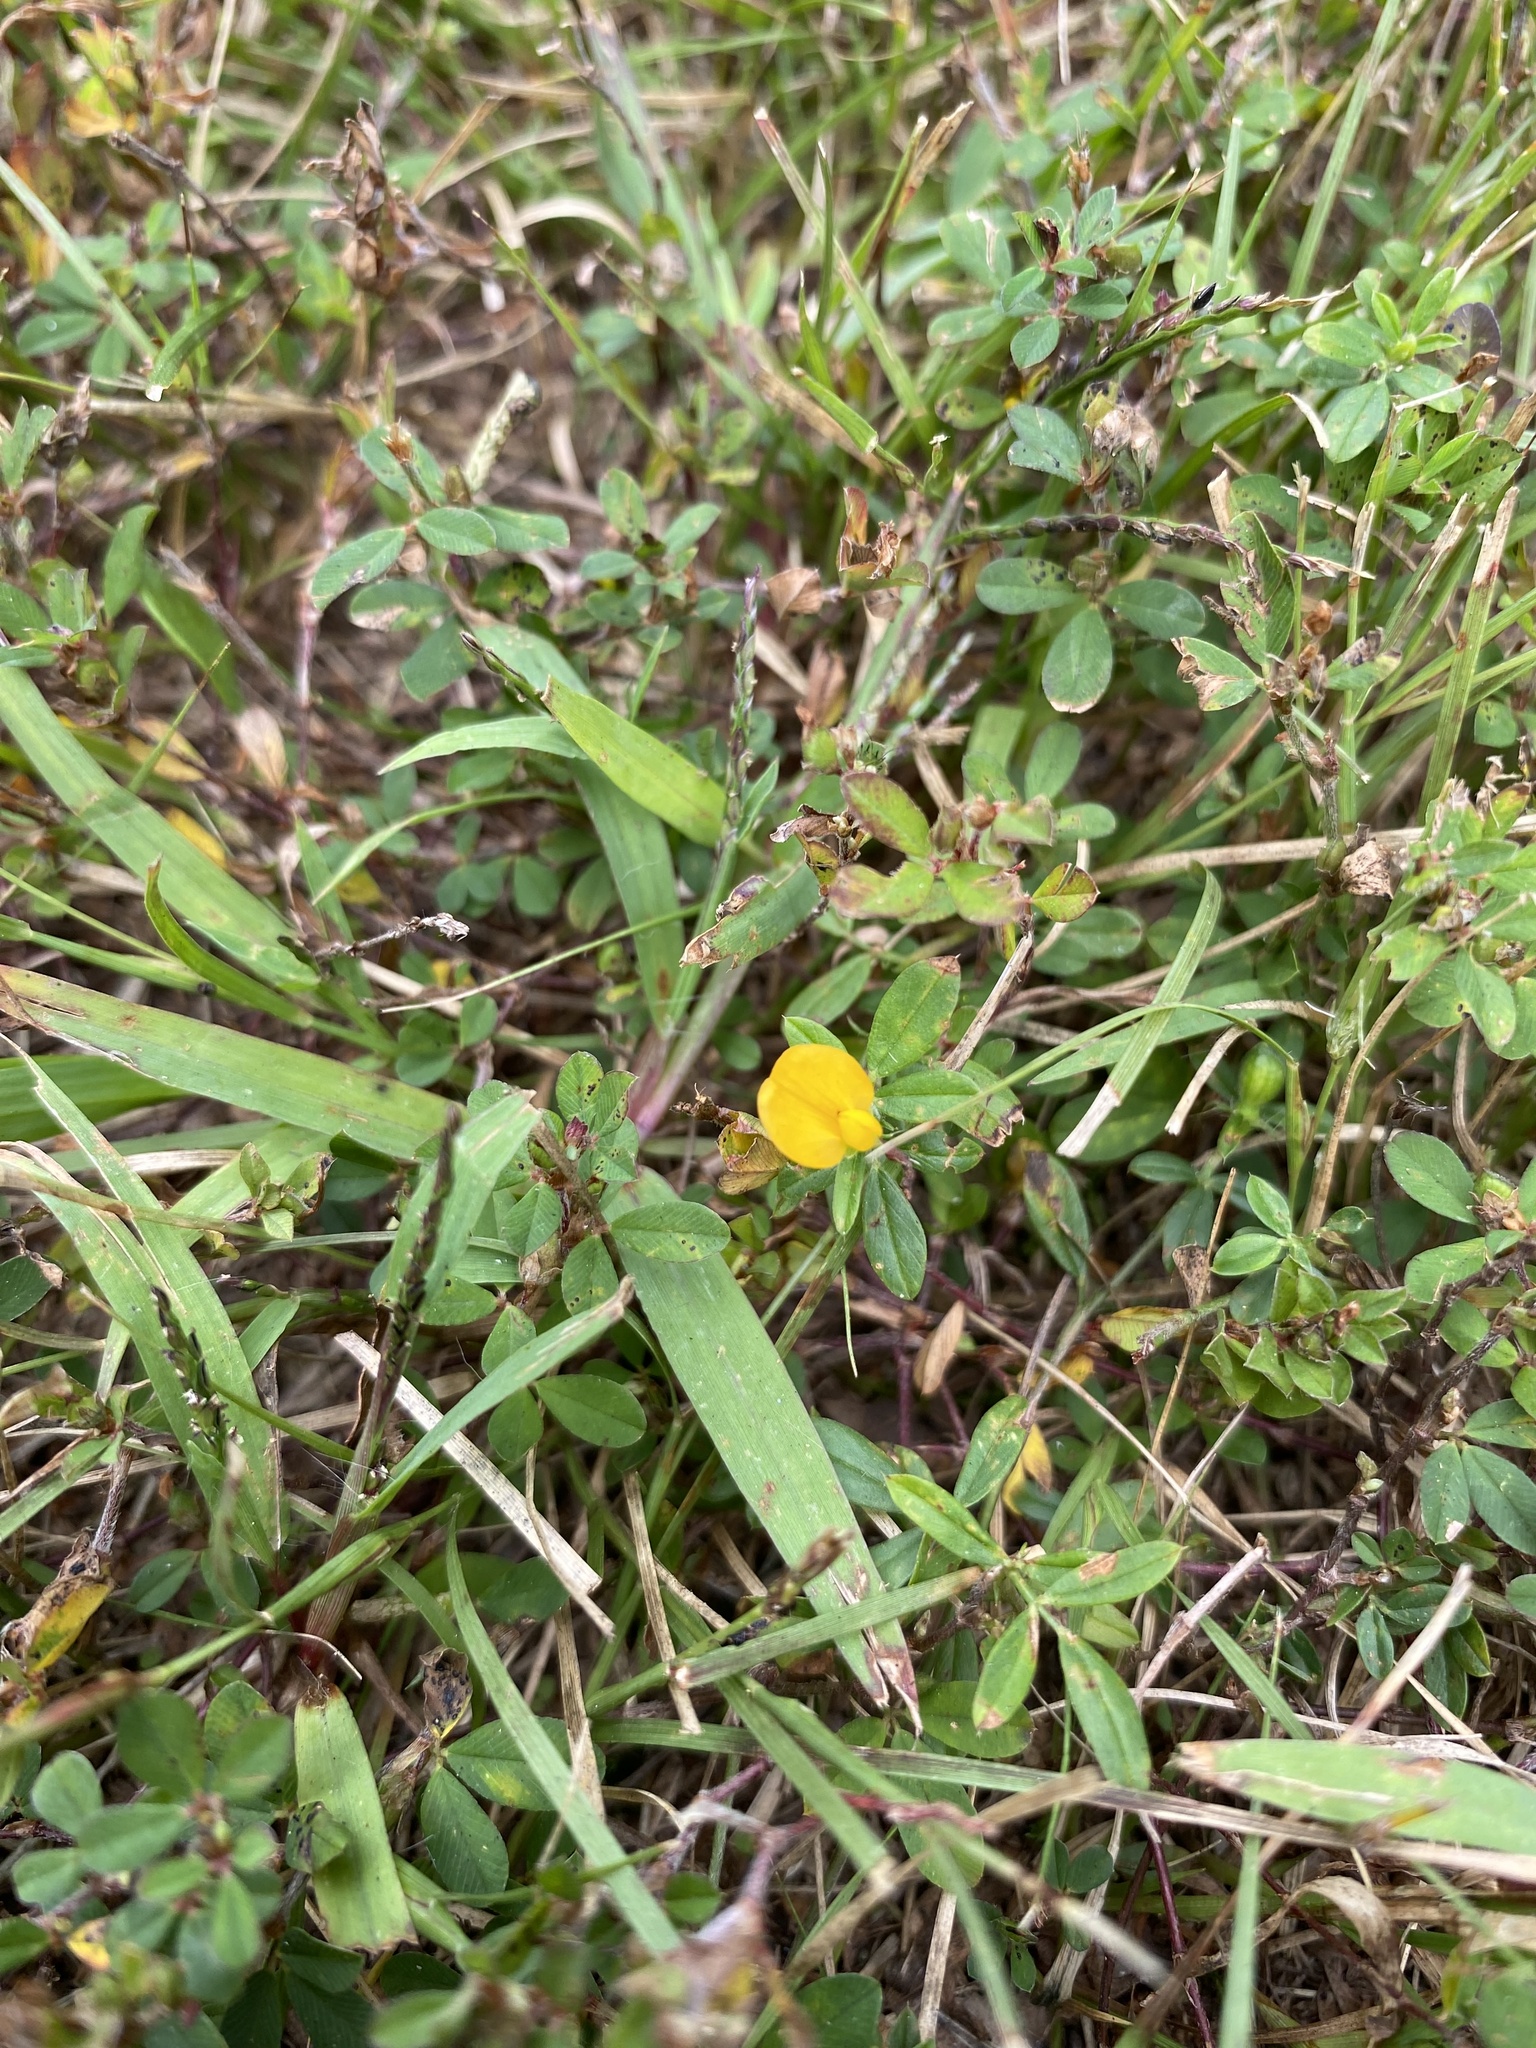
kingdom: Plantae
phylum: Tracheophyta
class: Magnoliopsida
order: Fabales
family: Fabaceae
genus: Stylosanthes
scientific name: Stylosanthes biflora
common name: Two-flower pencil-flower
